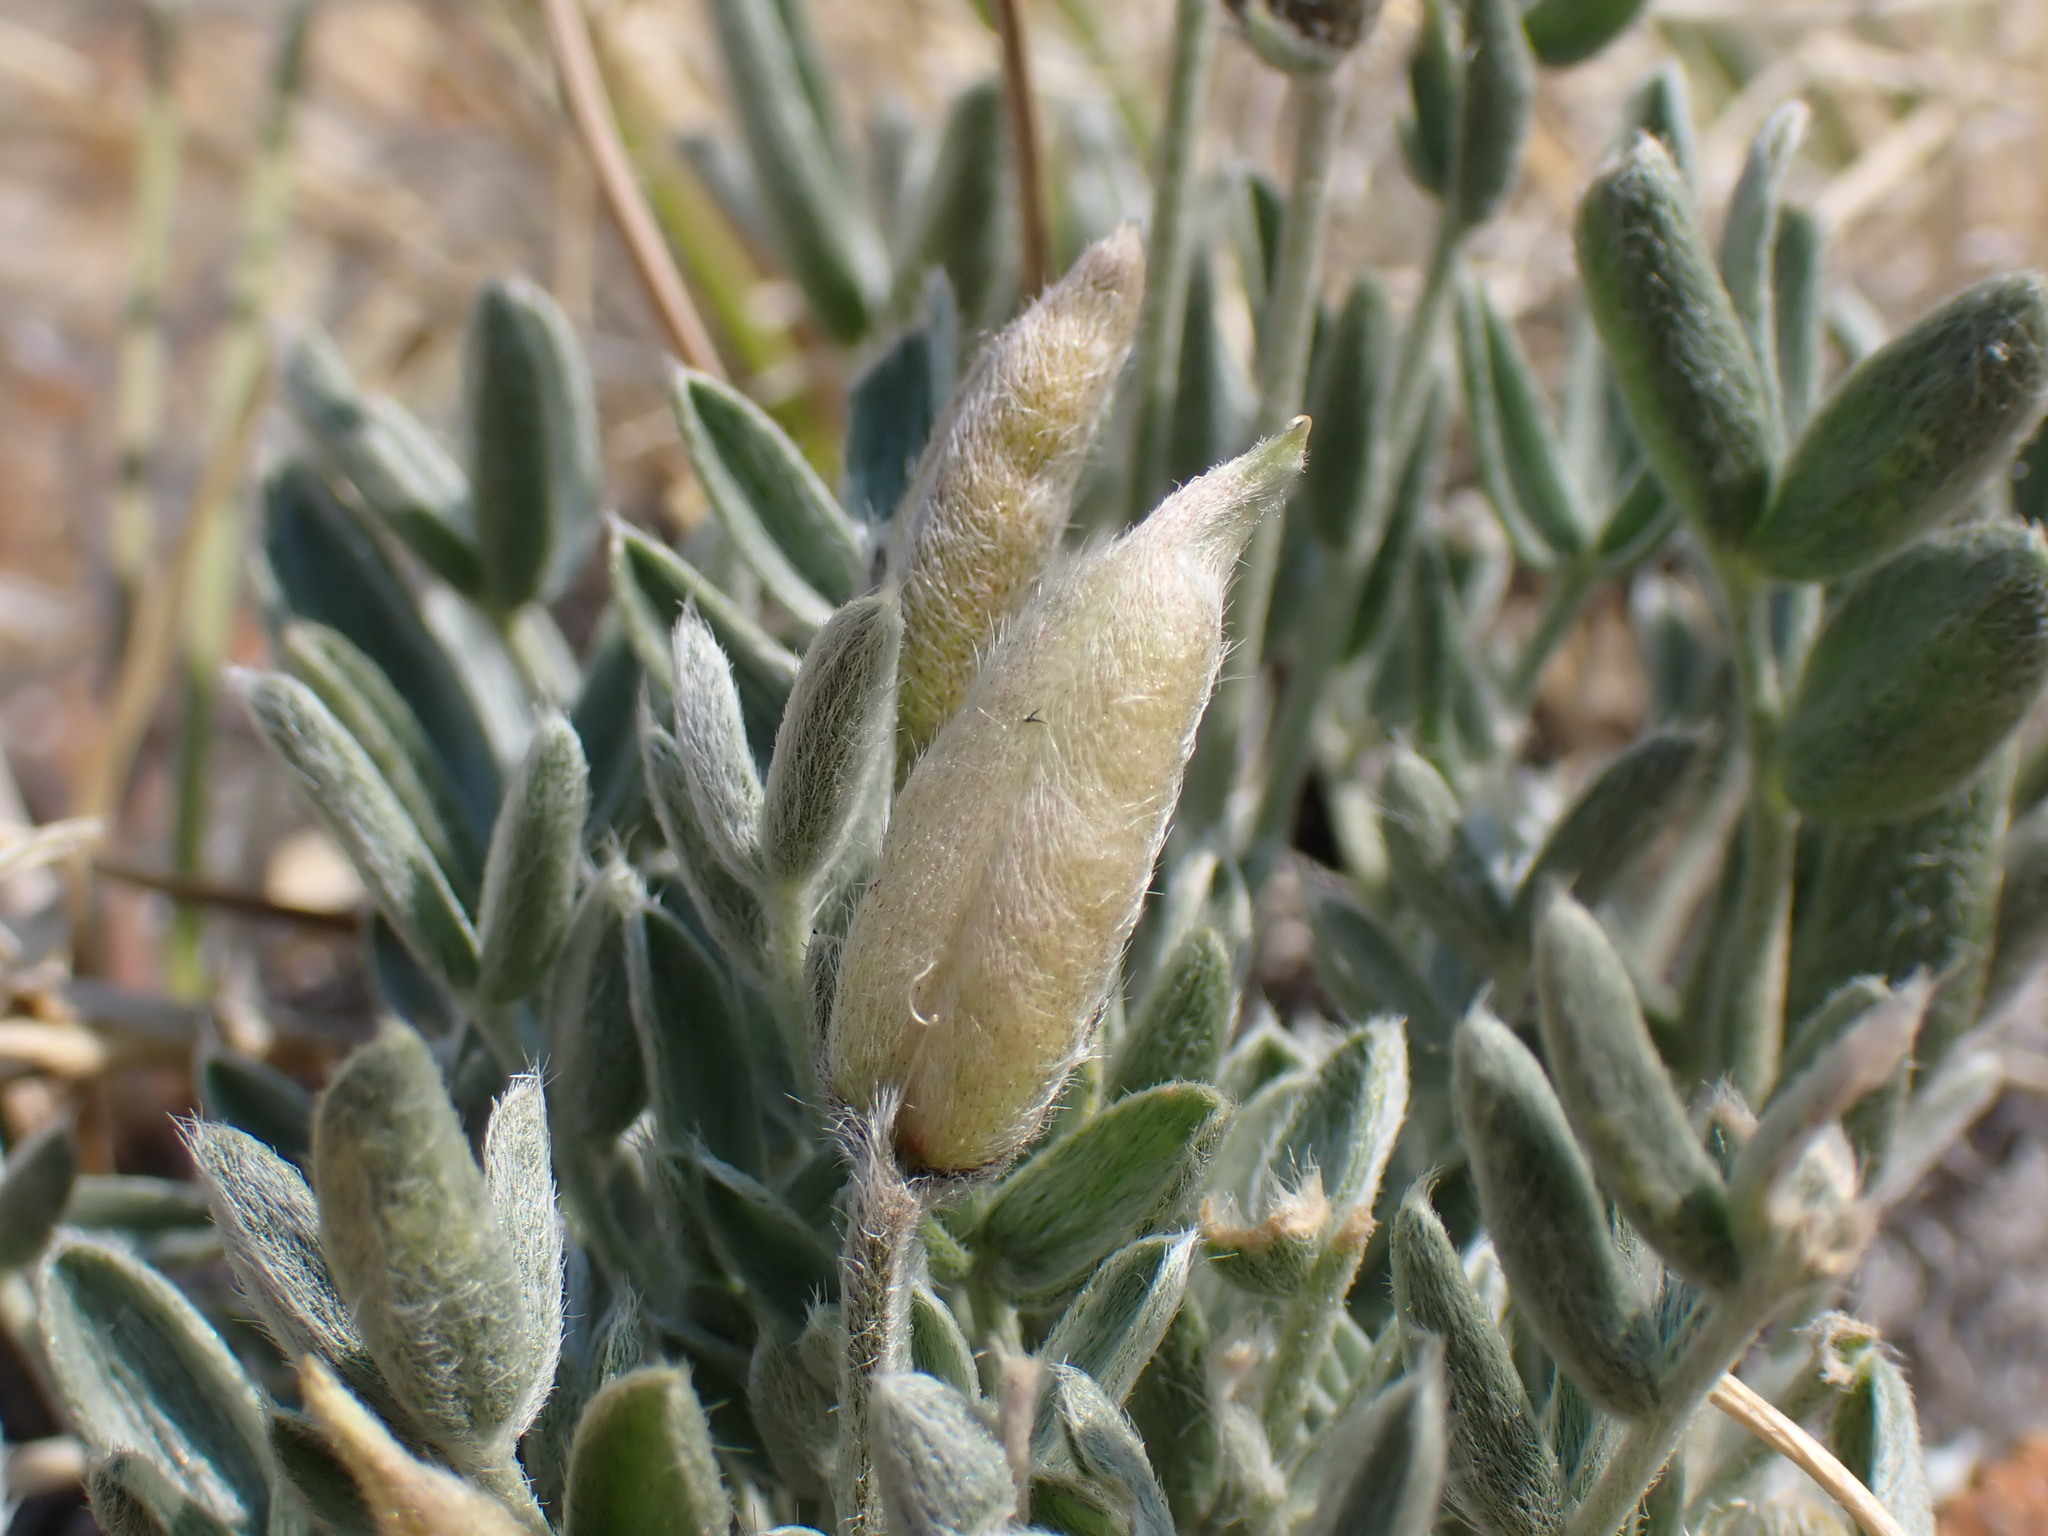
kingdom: Plantae
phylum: Tracheophyta
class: Magnoliopsida
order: Fabales
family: Fabaceae
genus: Oxytropis
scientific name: Oxytropis parryi
